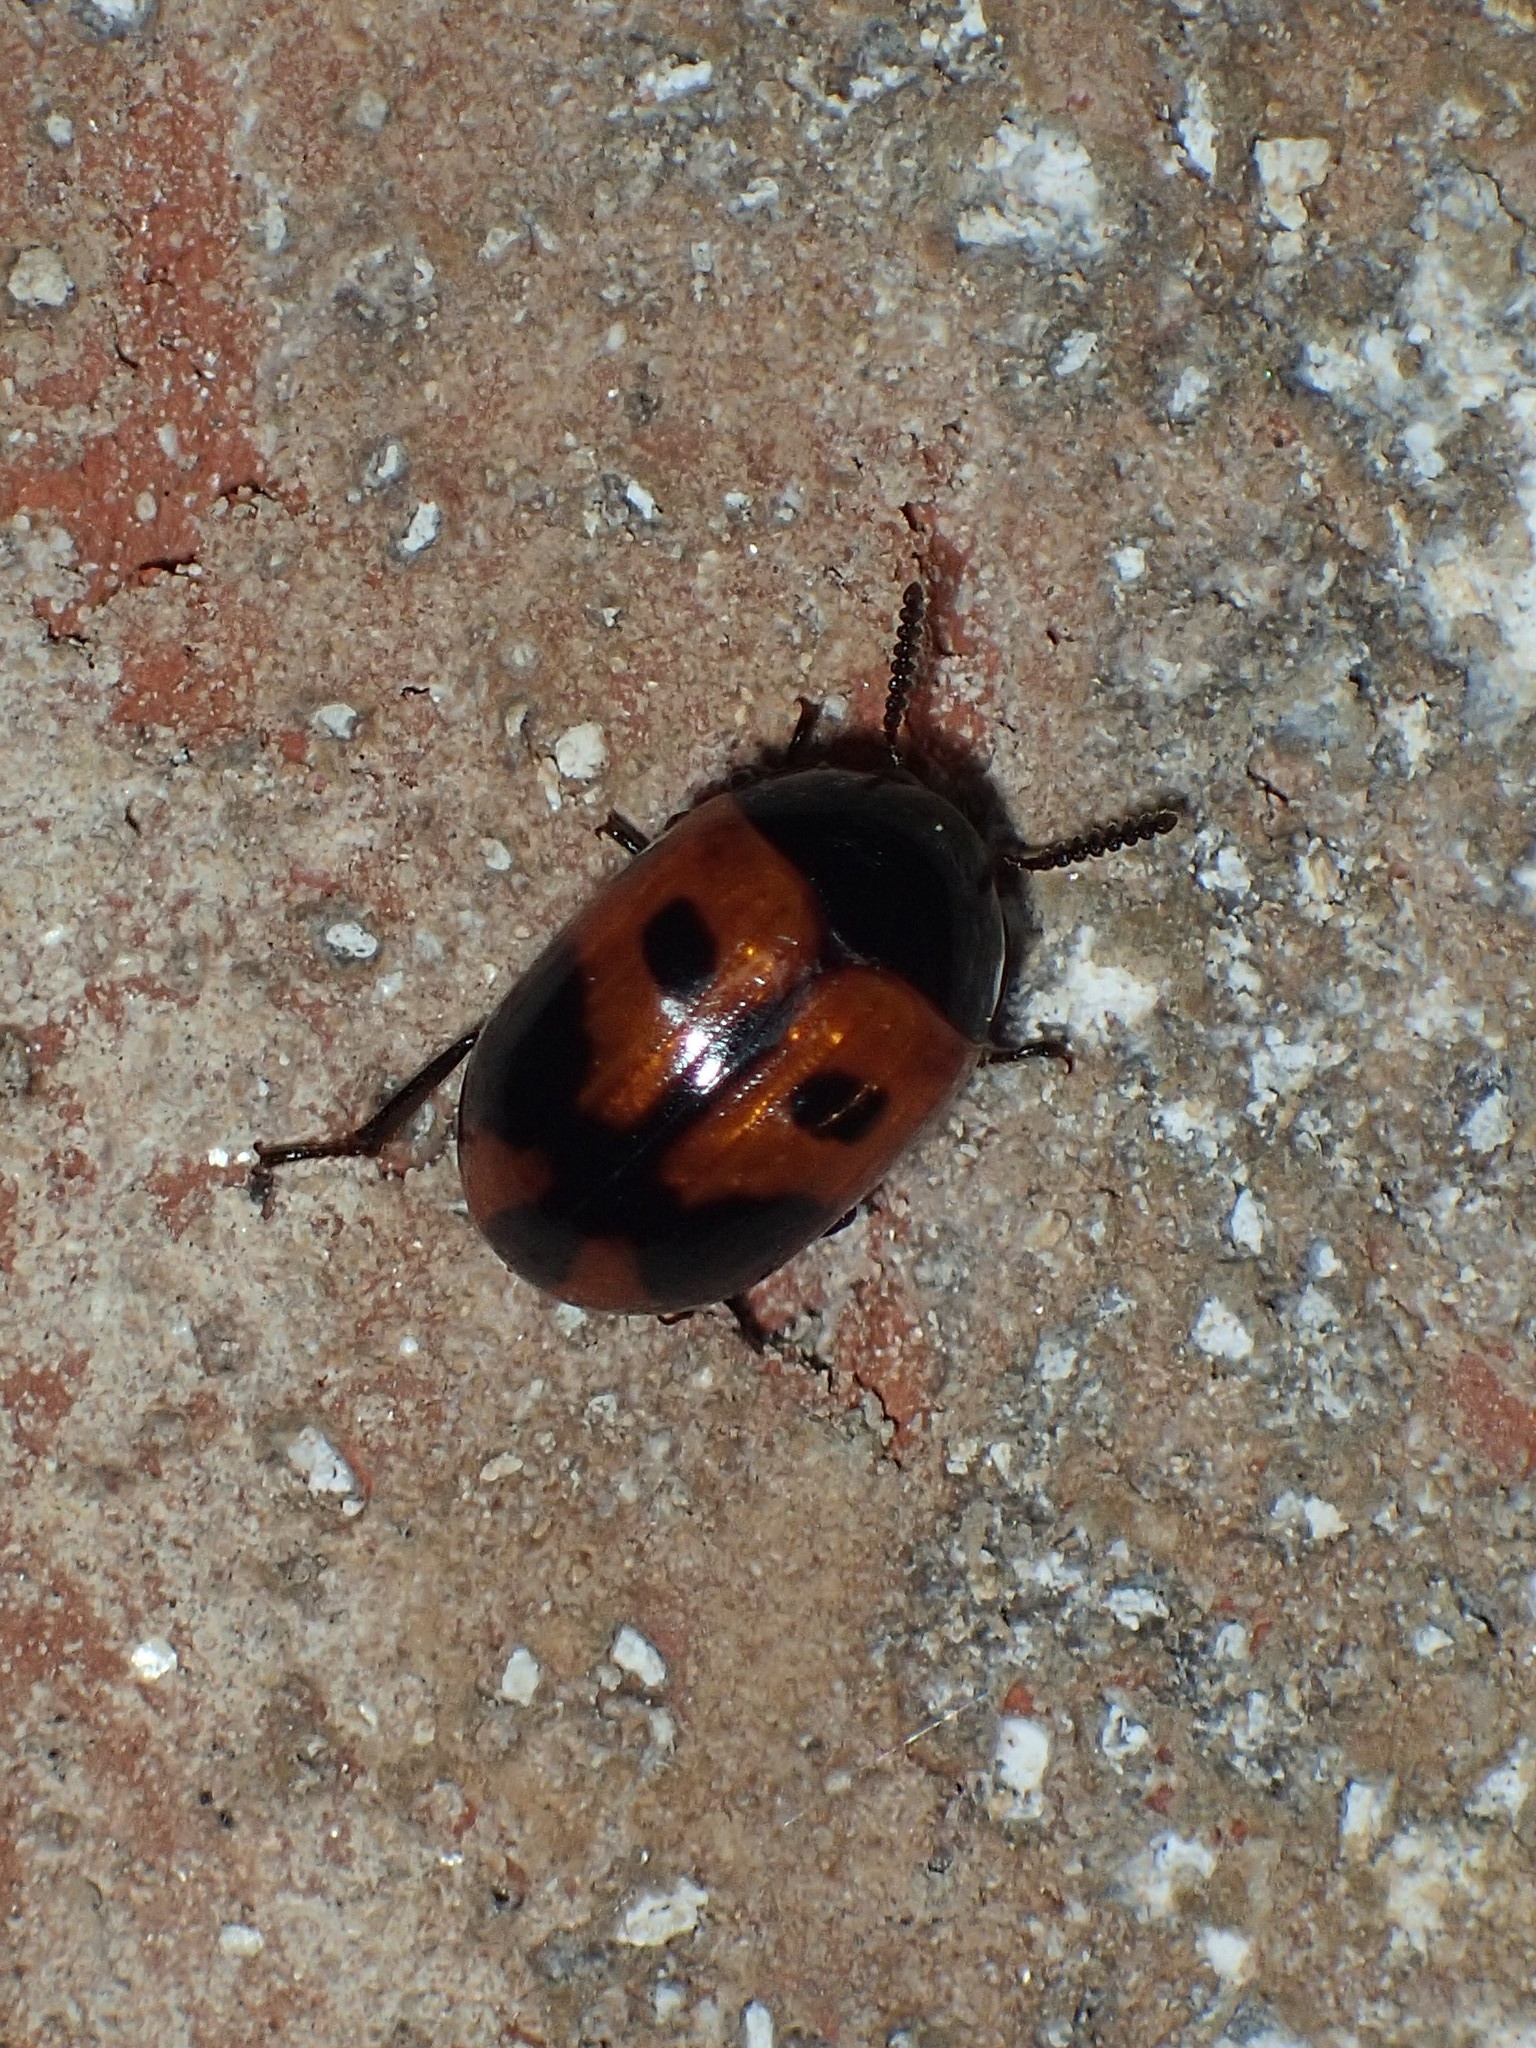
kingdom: Animalia
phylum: Arthropoda
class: Insecta
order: Coleoptera
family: Tenebrionidae
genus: Diaperis
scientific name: Diaperis maculata
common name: Darkling beetle
